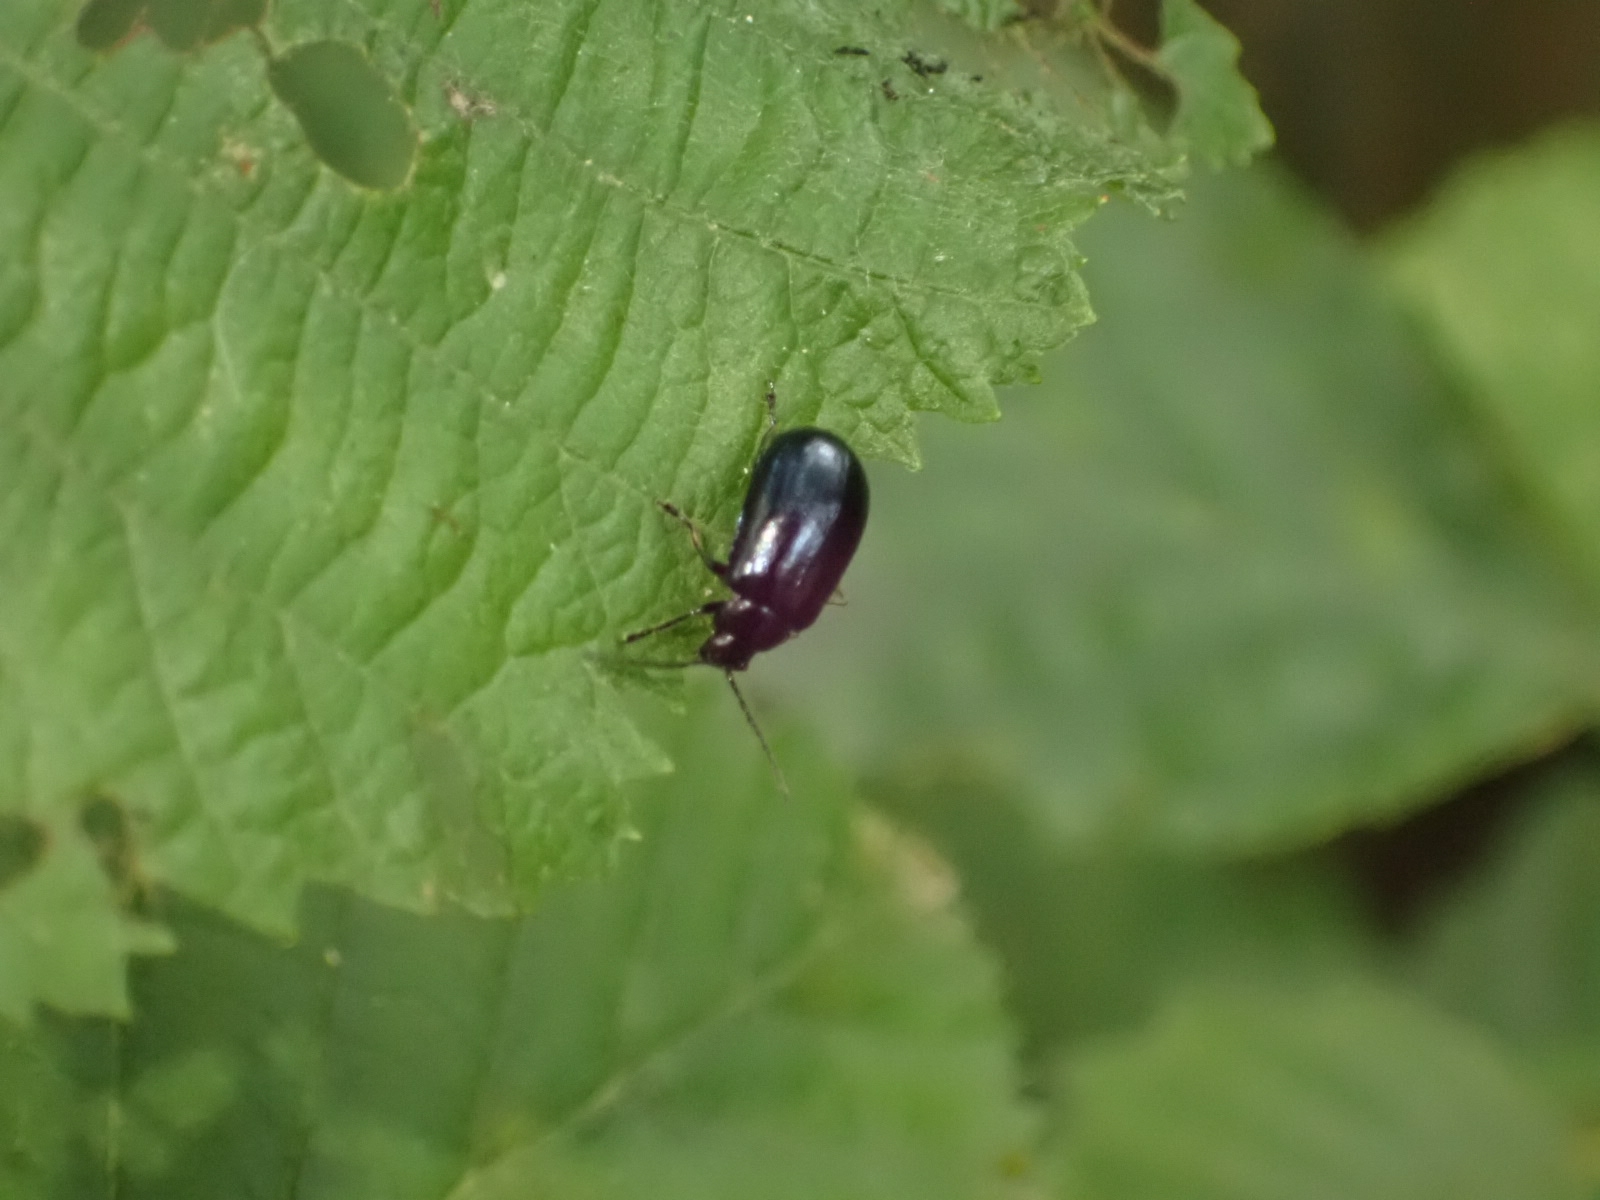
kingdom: Animalia
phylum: Arthropoda
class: Insecta
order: Coleoptera
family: Chrysomelidae
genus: Agelastica
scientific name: Agelastica alni
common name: Alder leaf beetle
